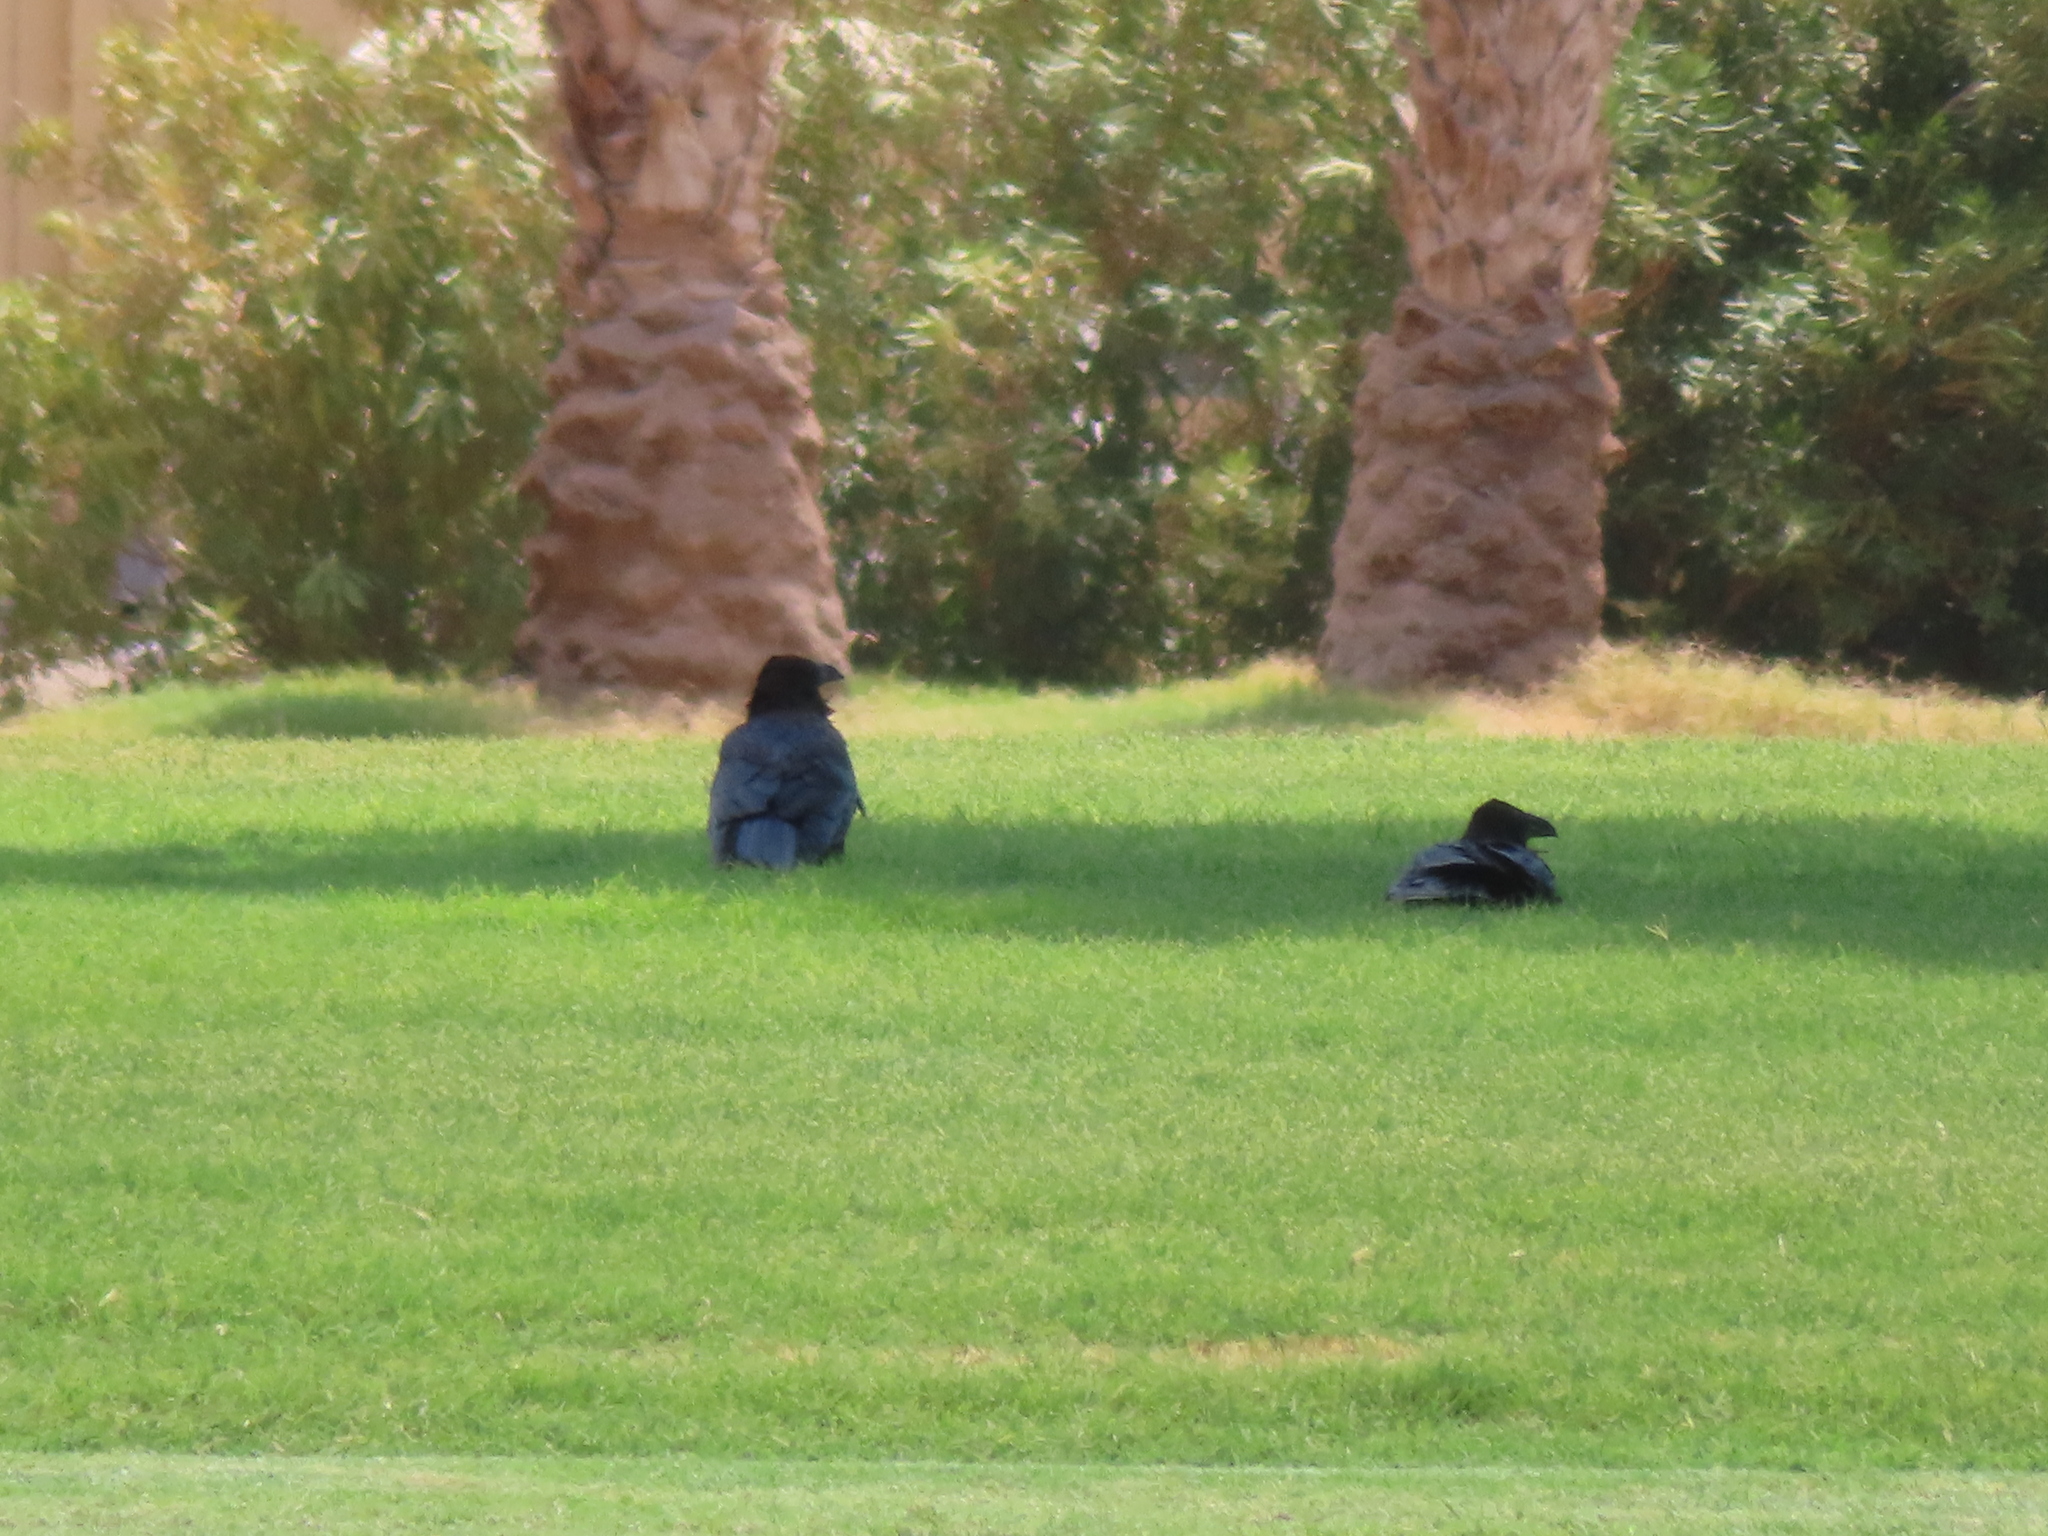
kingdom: Animalia
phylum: Chordata
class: Aves
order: Passeriformes
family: Corvidae
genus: Corvus
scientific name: Corvus corax
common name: Common raven
